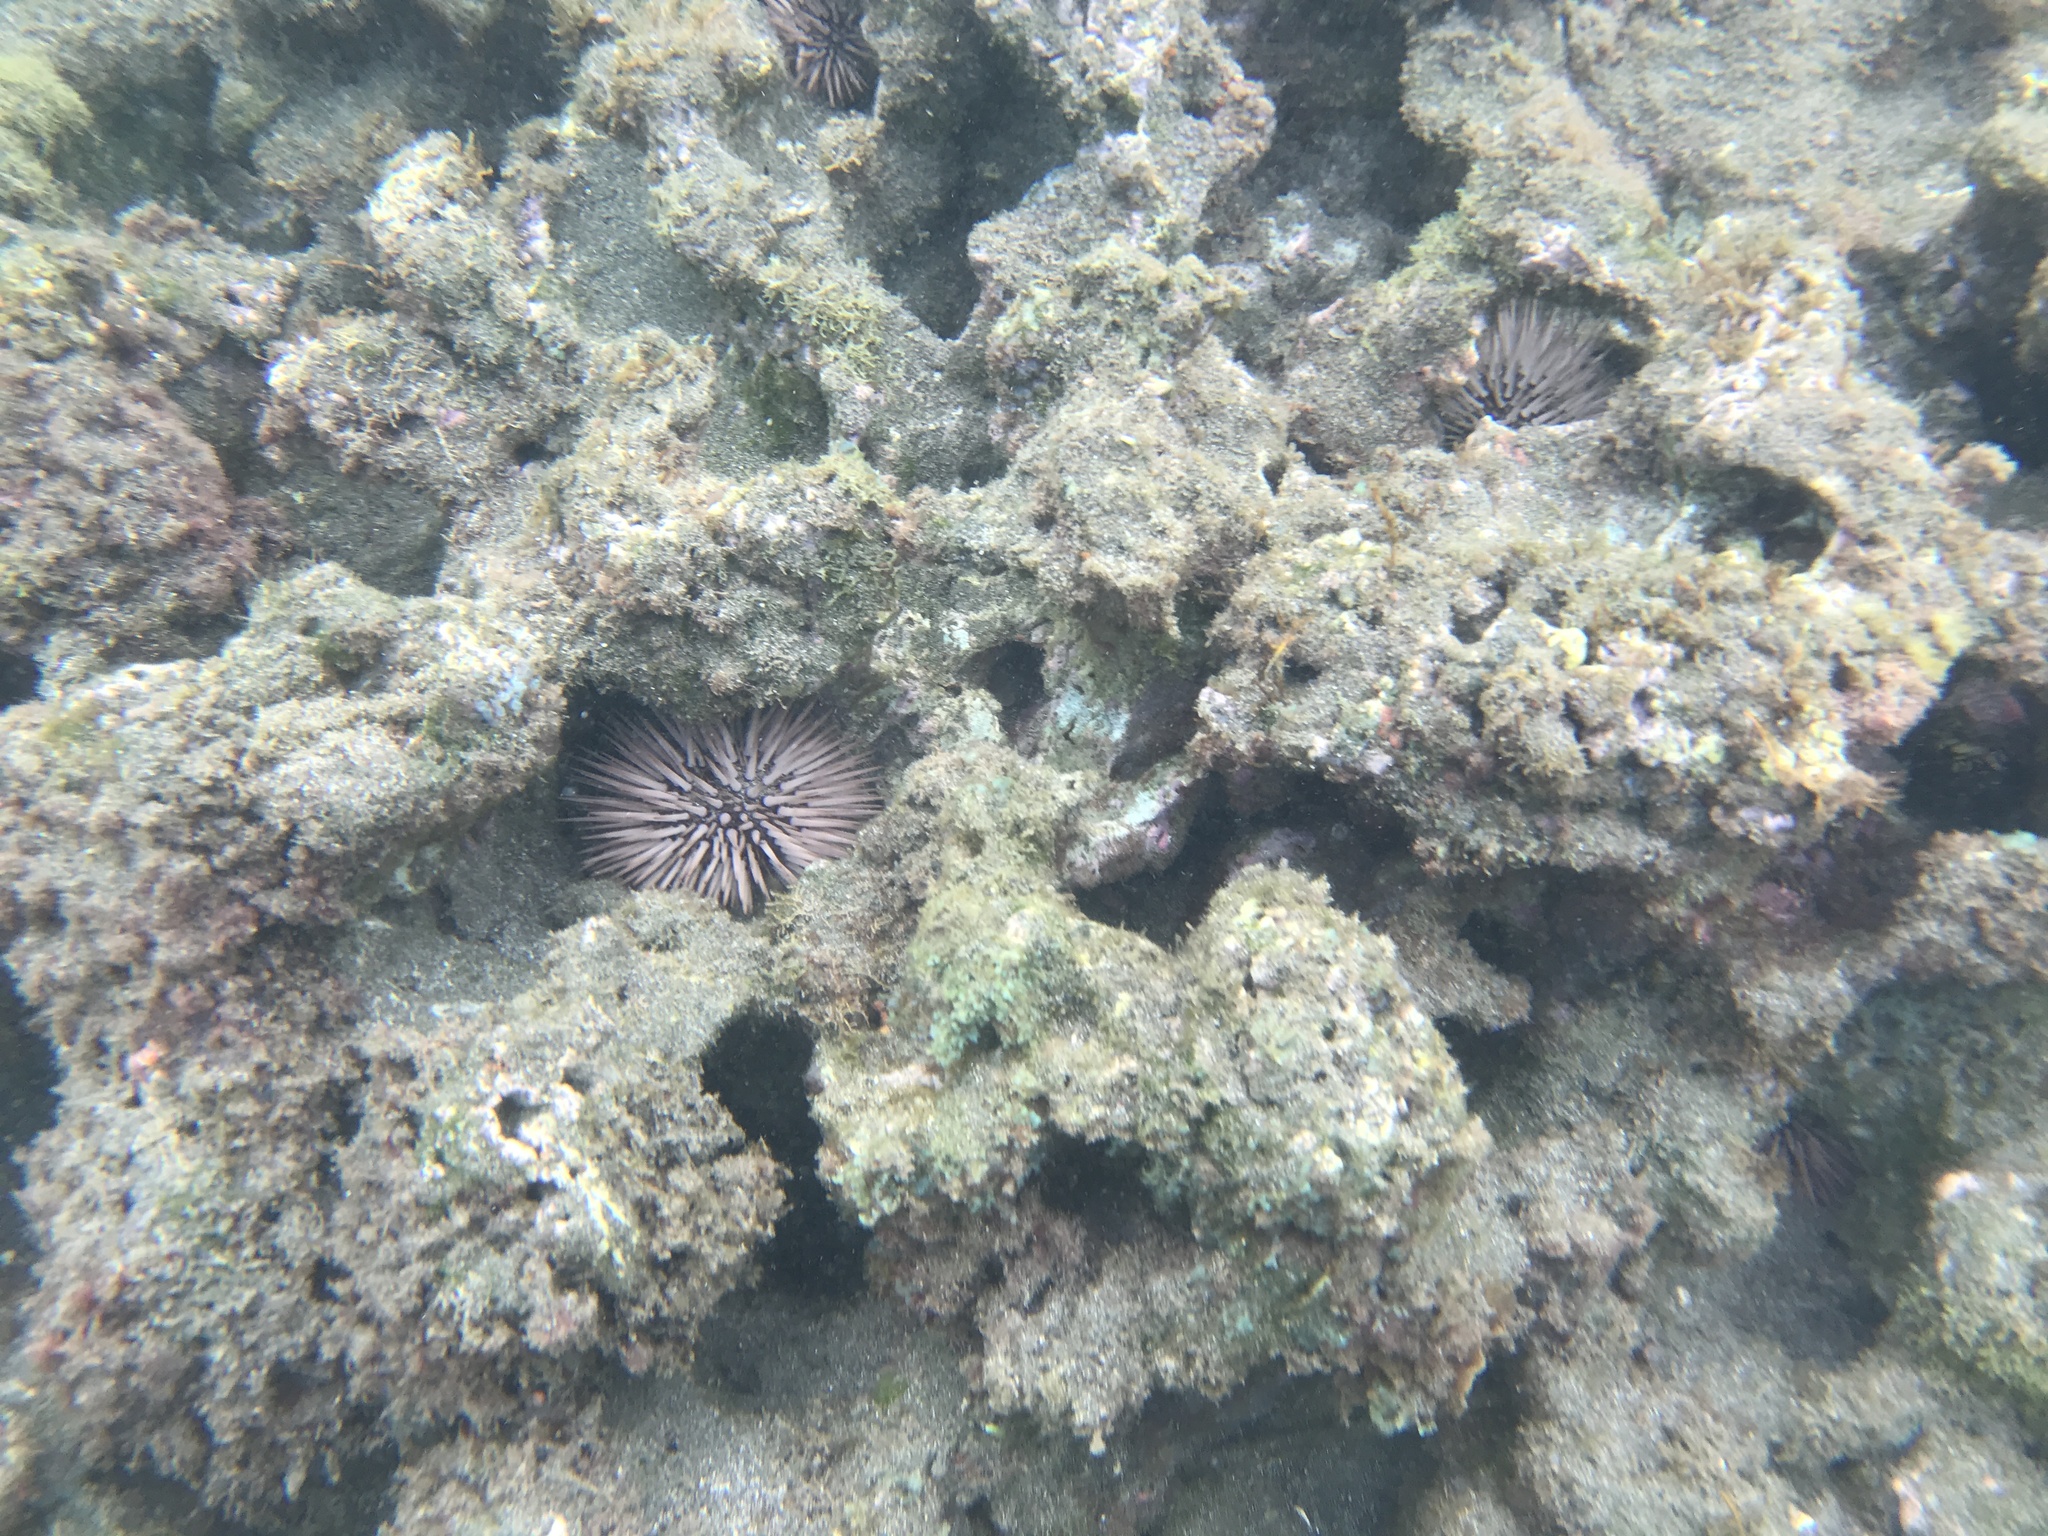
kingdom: Animalia
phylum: Echinodermata
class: Echinoidea
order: Camarodonta
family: Echinometridae
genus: Echinometra
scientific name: Echinometra mathaei
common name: Rock-boring urchin
